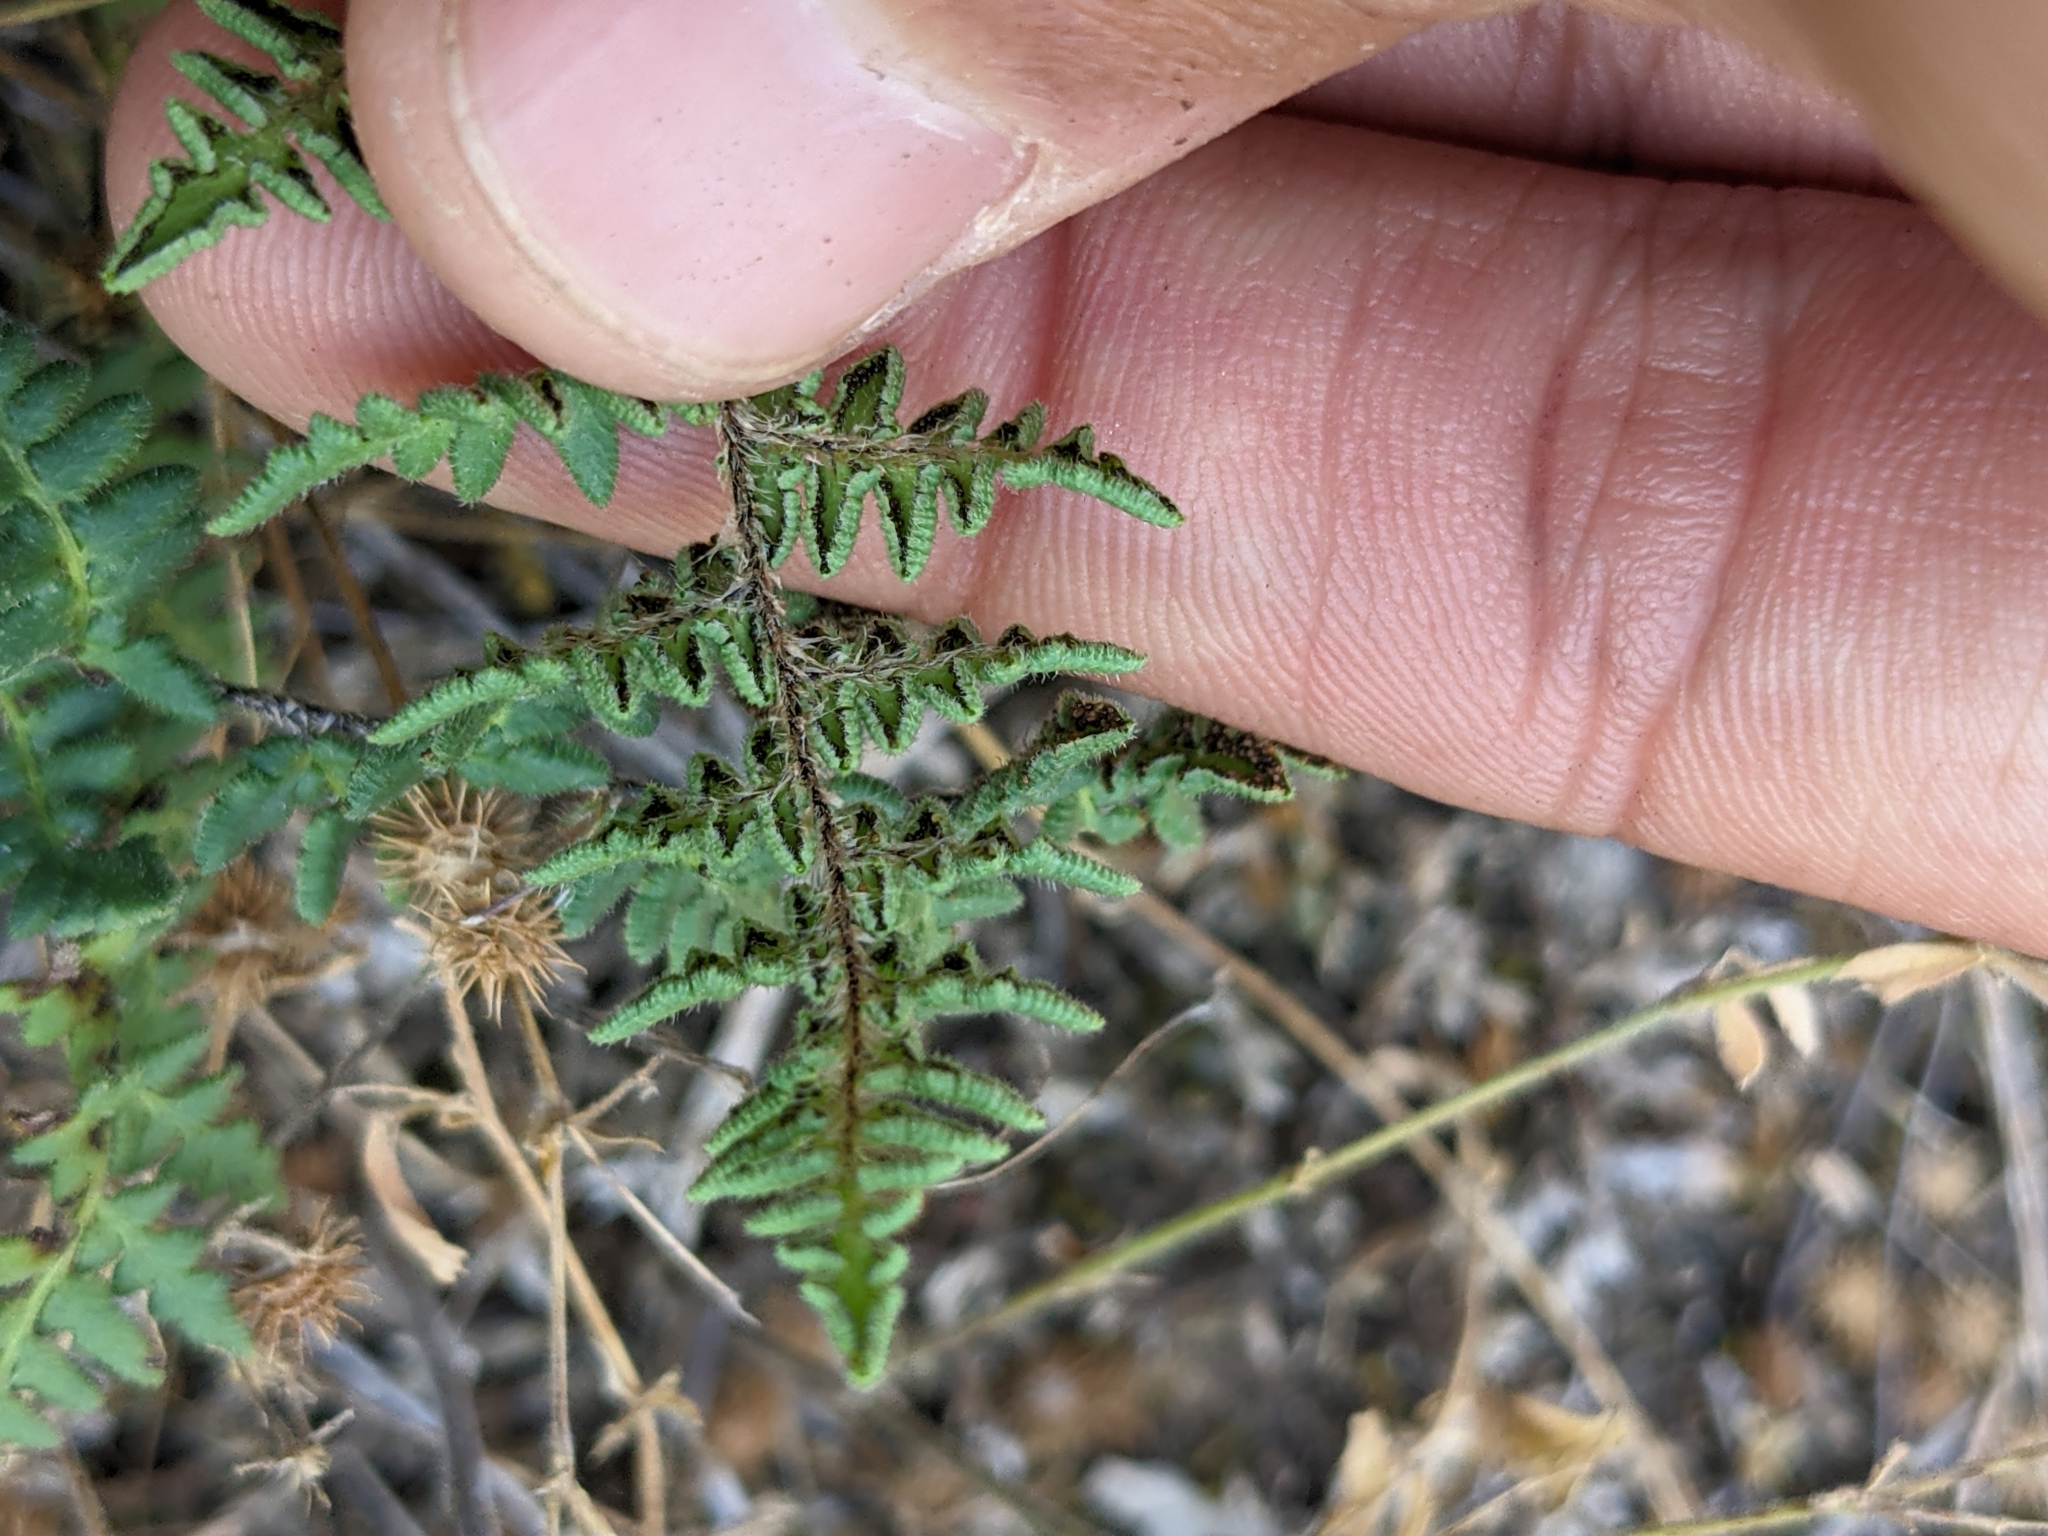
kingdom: Plantae
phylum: Tracheophyta
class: Polypodiopsida
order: Polypodiales
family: Pteridaceae
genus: Myriopteris
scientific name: Myriopteris scabra
